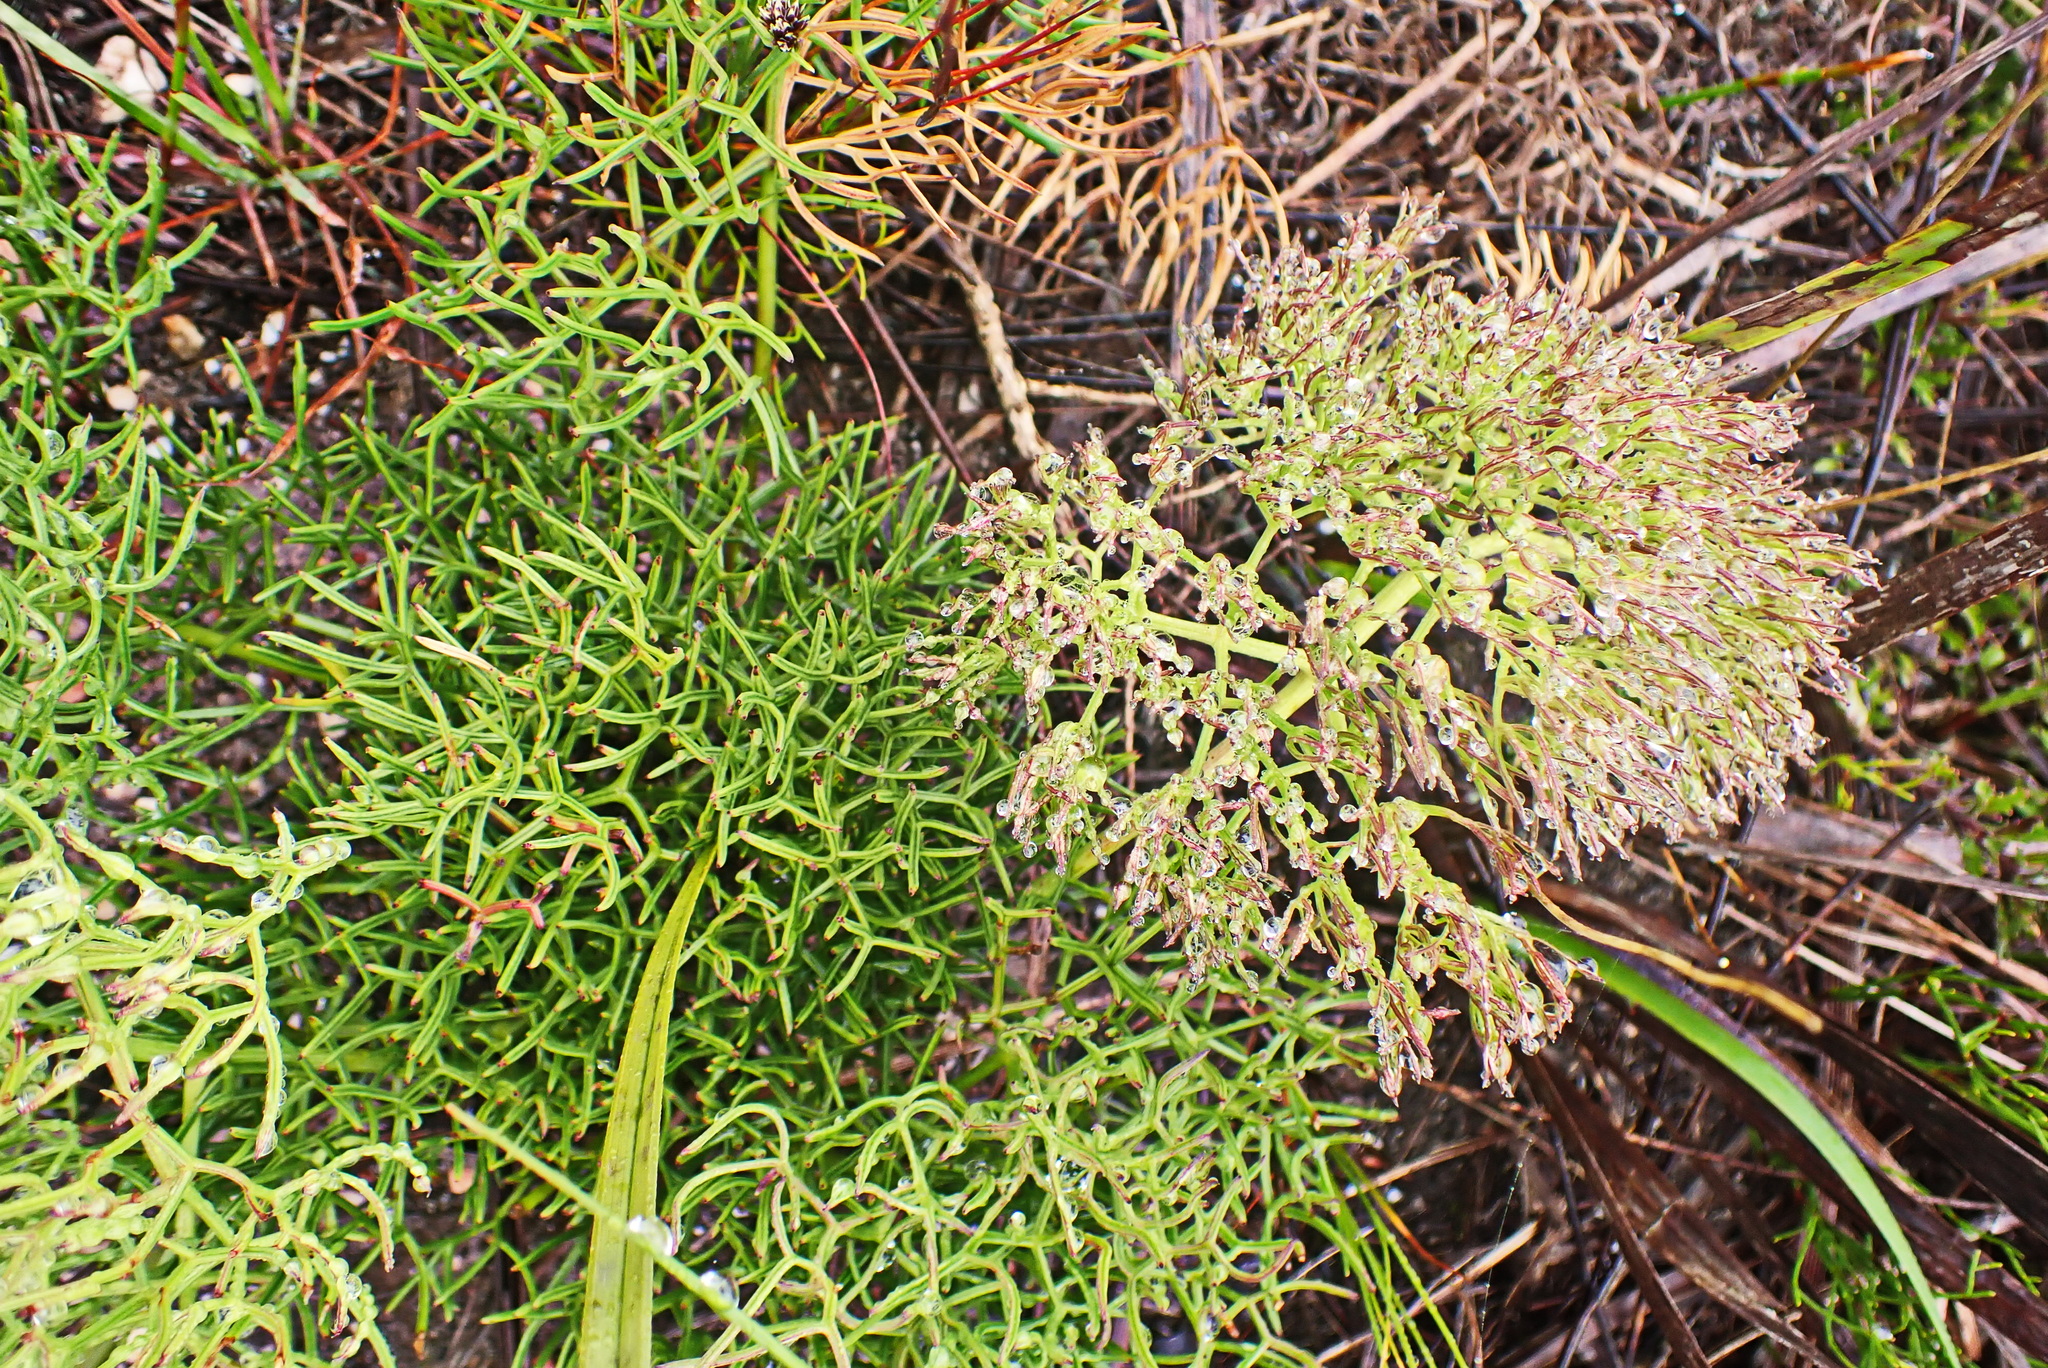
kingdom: Plantae
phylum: Tracheophyta
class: Magnoliopsida
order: Apiales
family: Apiaceae
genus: Nanobubon
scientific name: Nanobubon capillaceum
